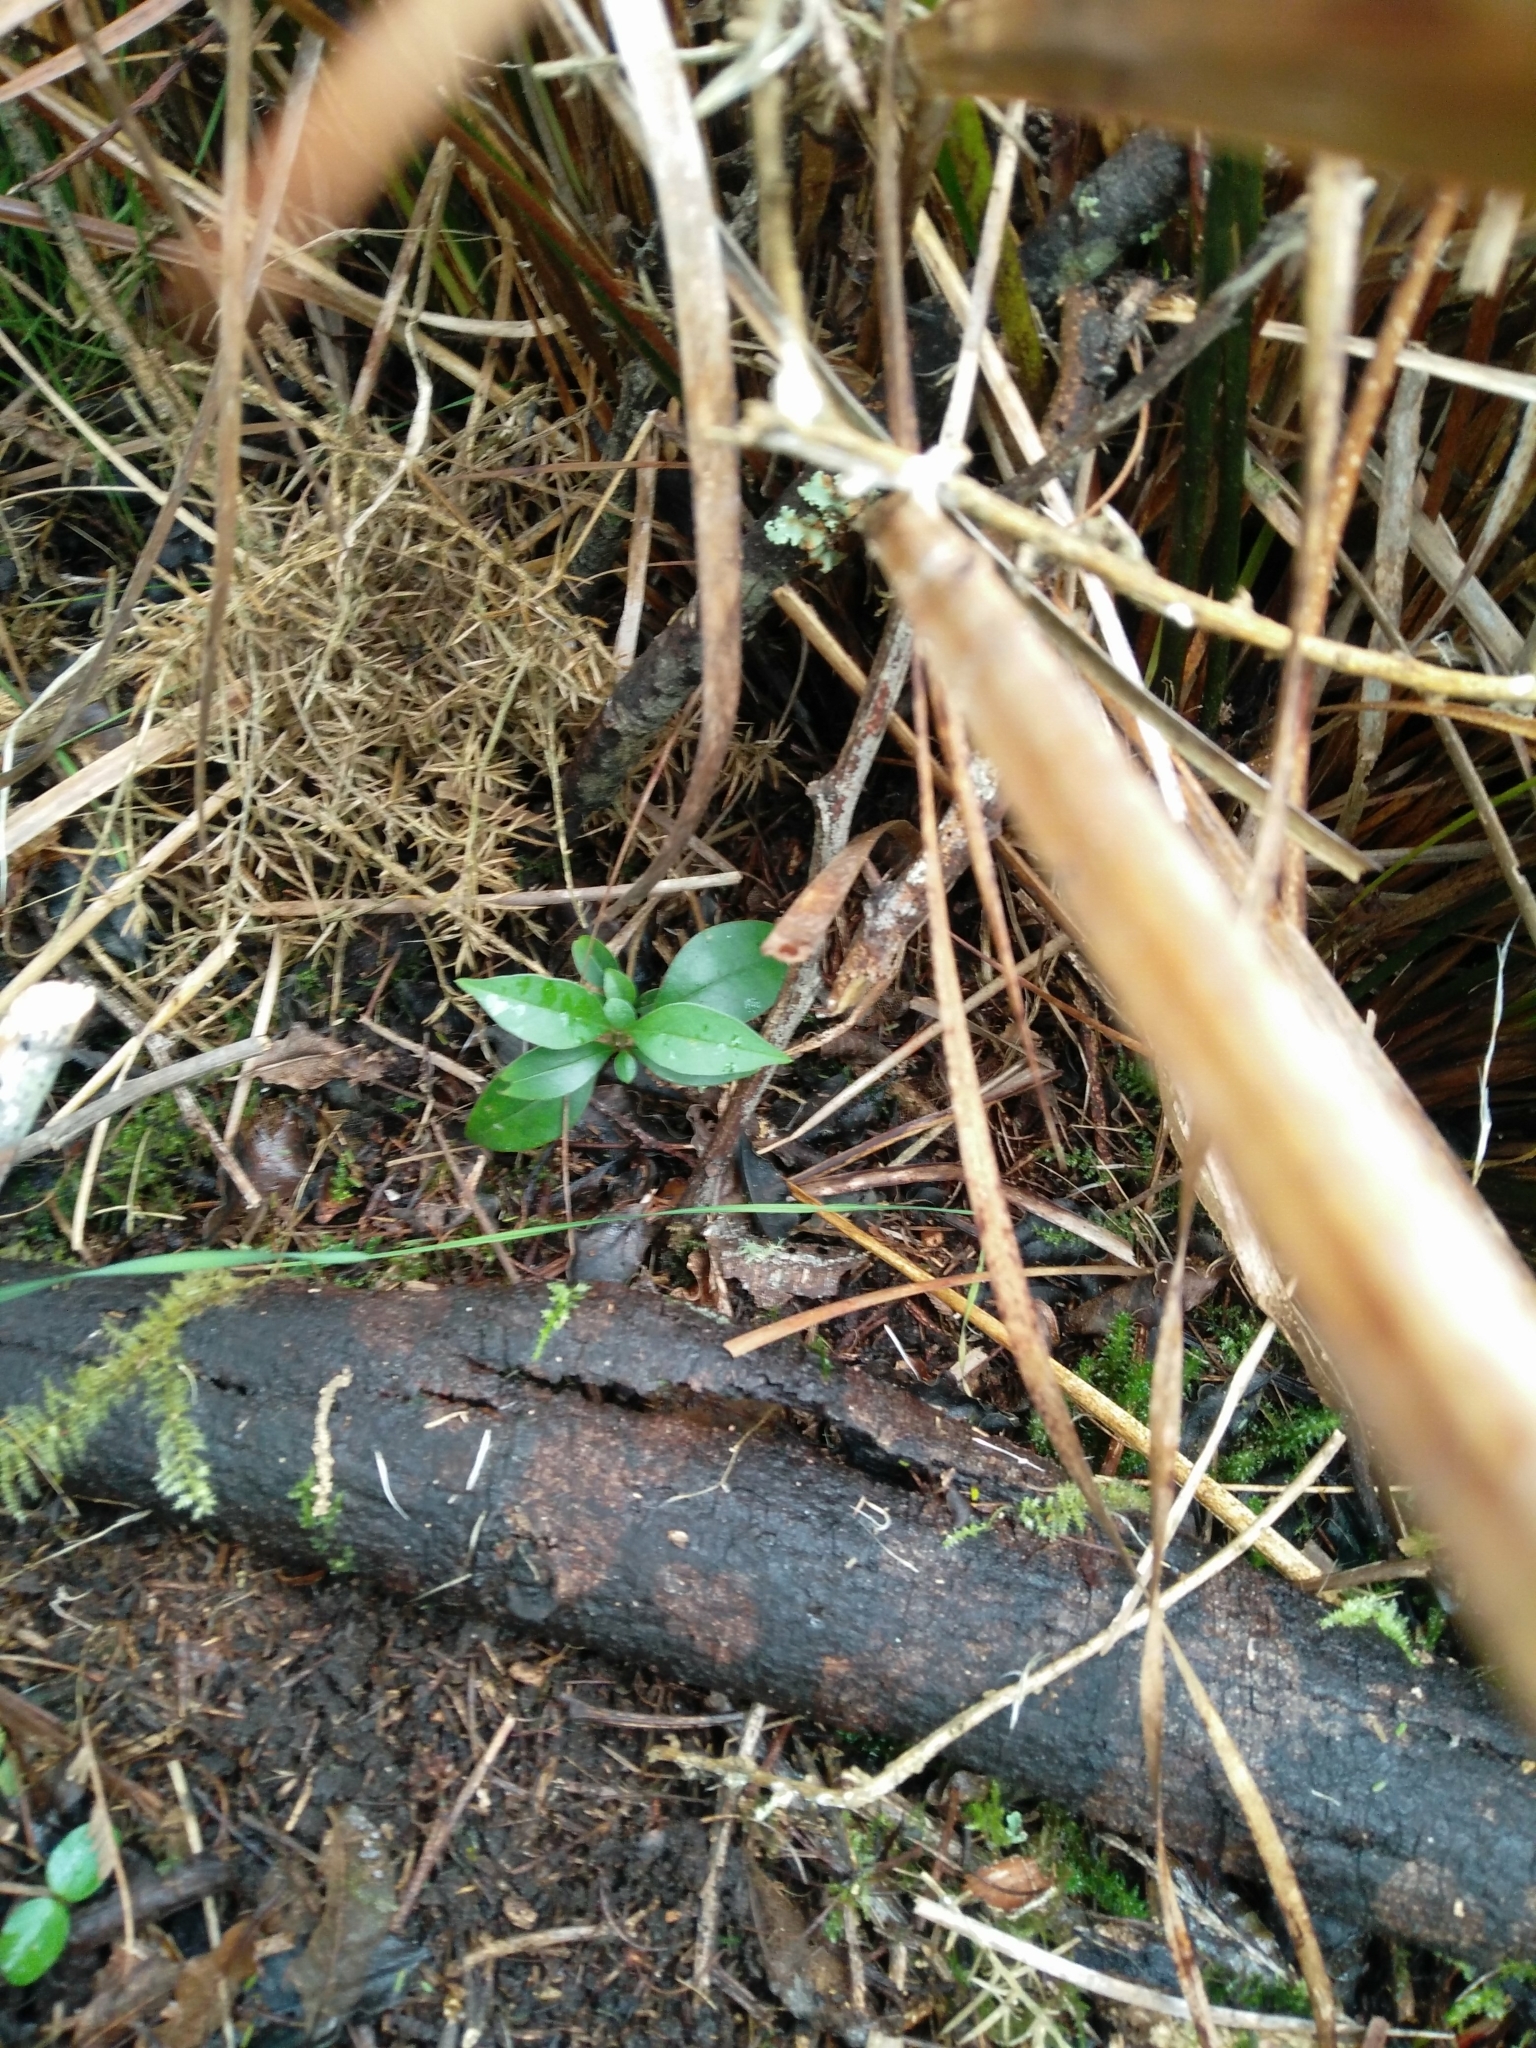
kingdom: Plantae
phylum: Tracheophyta
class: Magnoliopsida
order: Lamiales
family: Oleaceae
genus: Ligustrum
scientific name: Ligustrum lucidum
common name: Glossy privet
